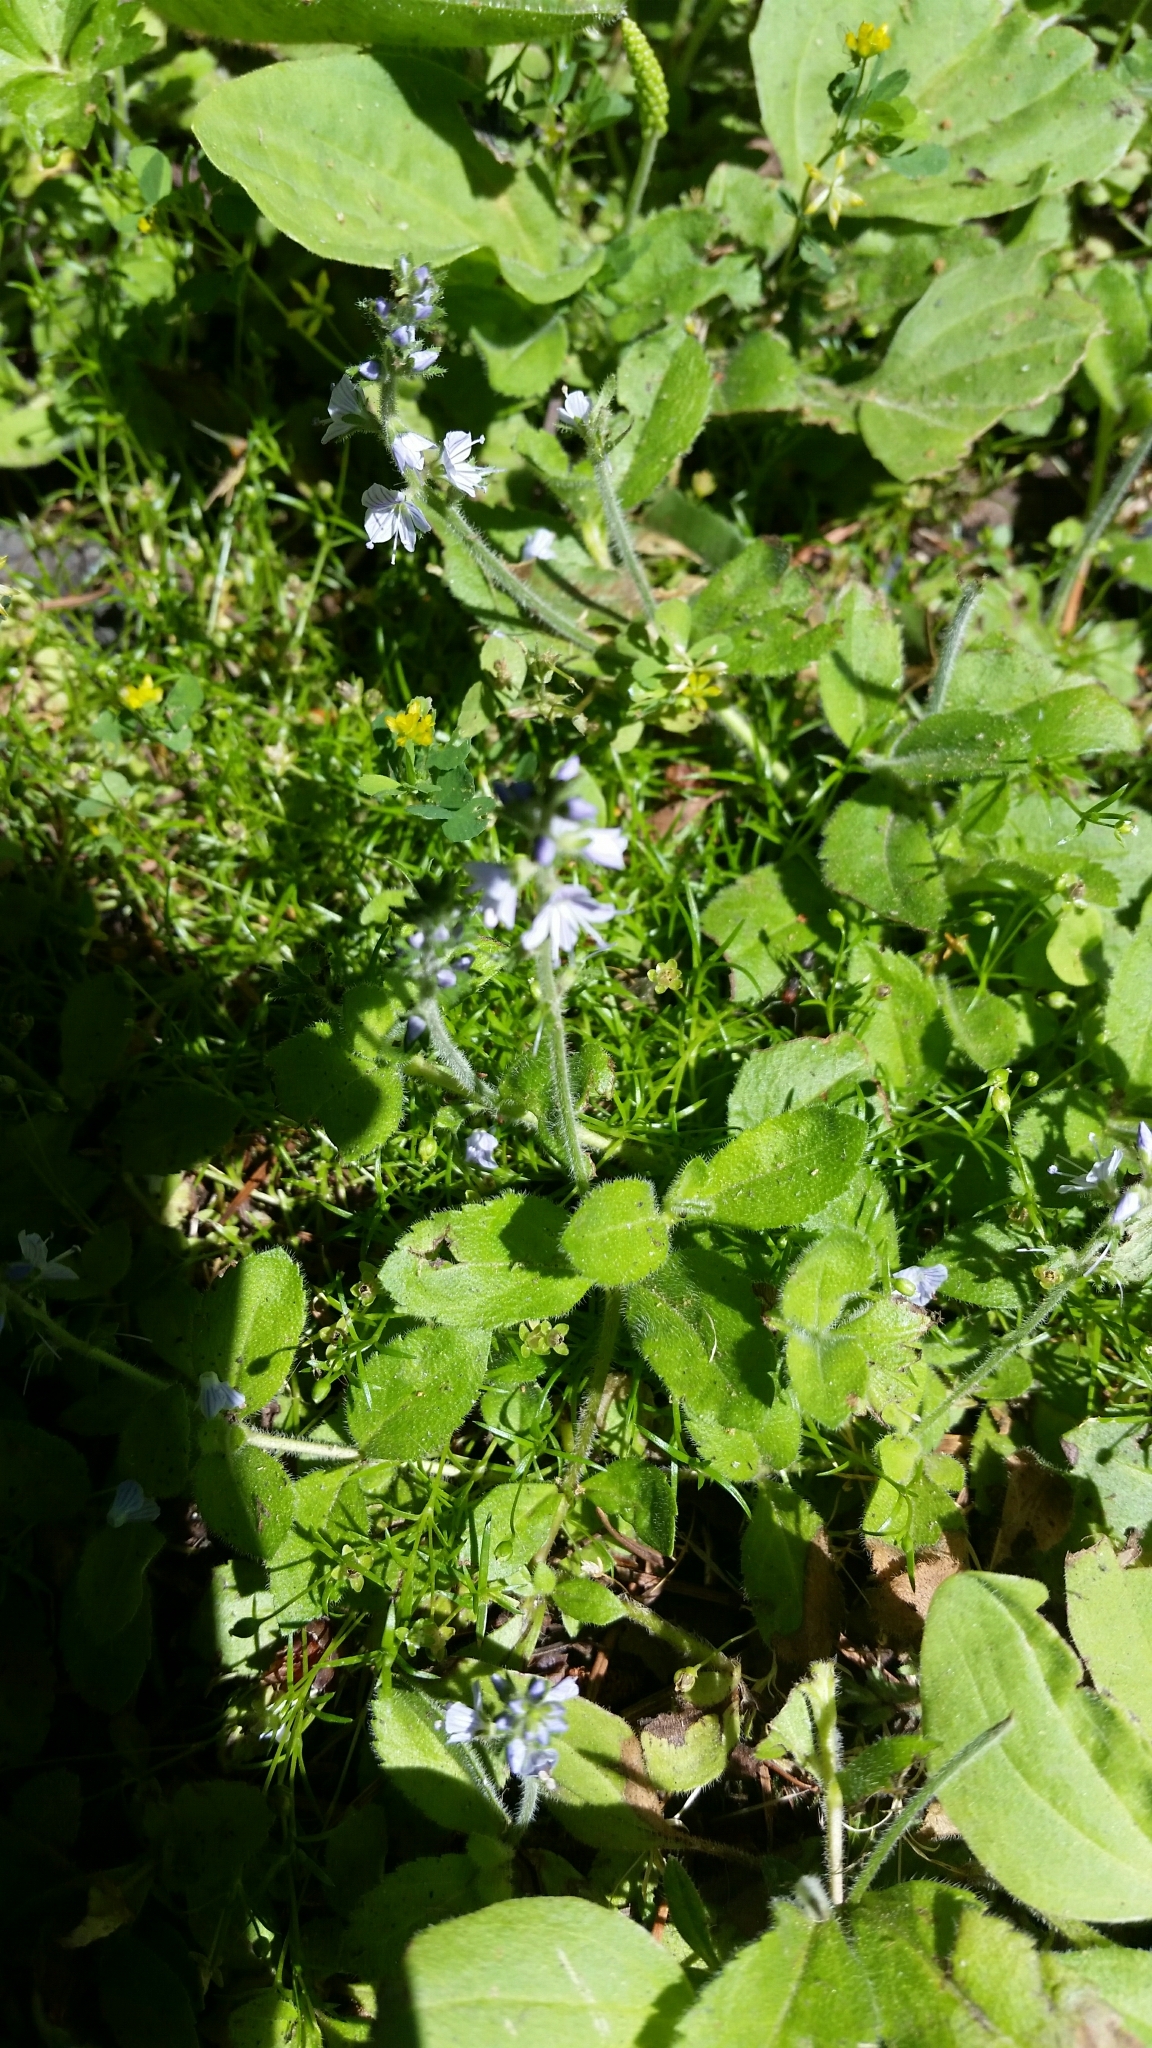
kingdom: Plantae
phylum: Tracheophyta
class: Magnoliopsida
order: Lamiales
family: Plantaginaceae
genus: Veronica
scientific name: Veronica officinalis
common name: Common speedwell
